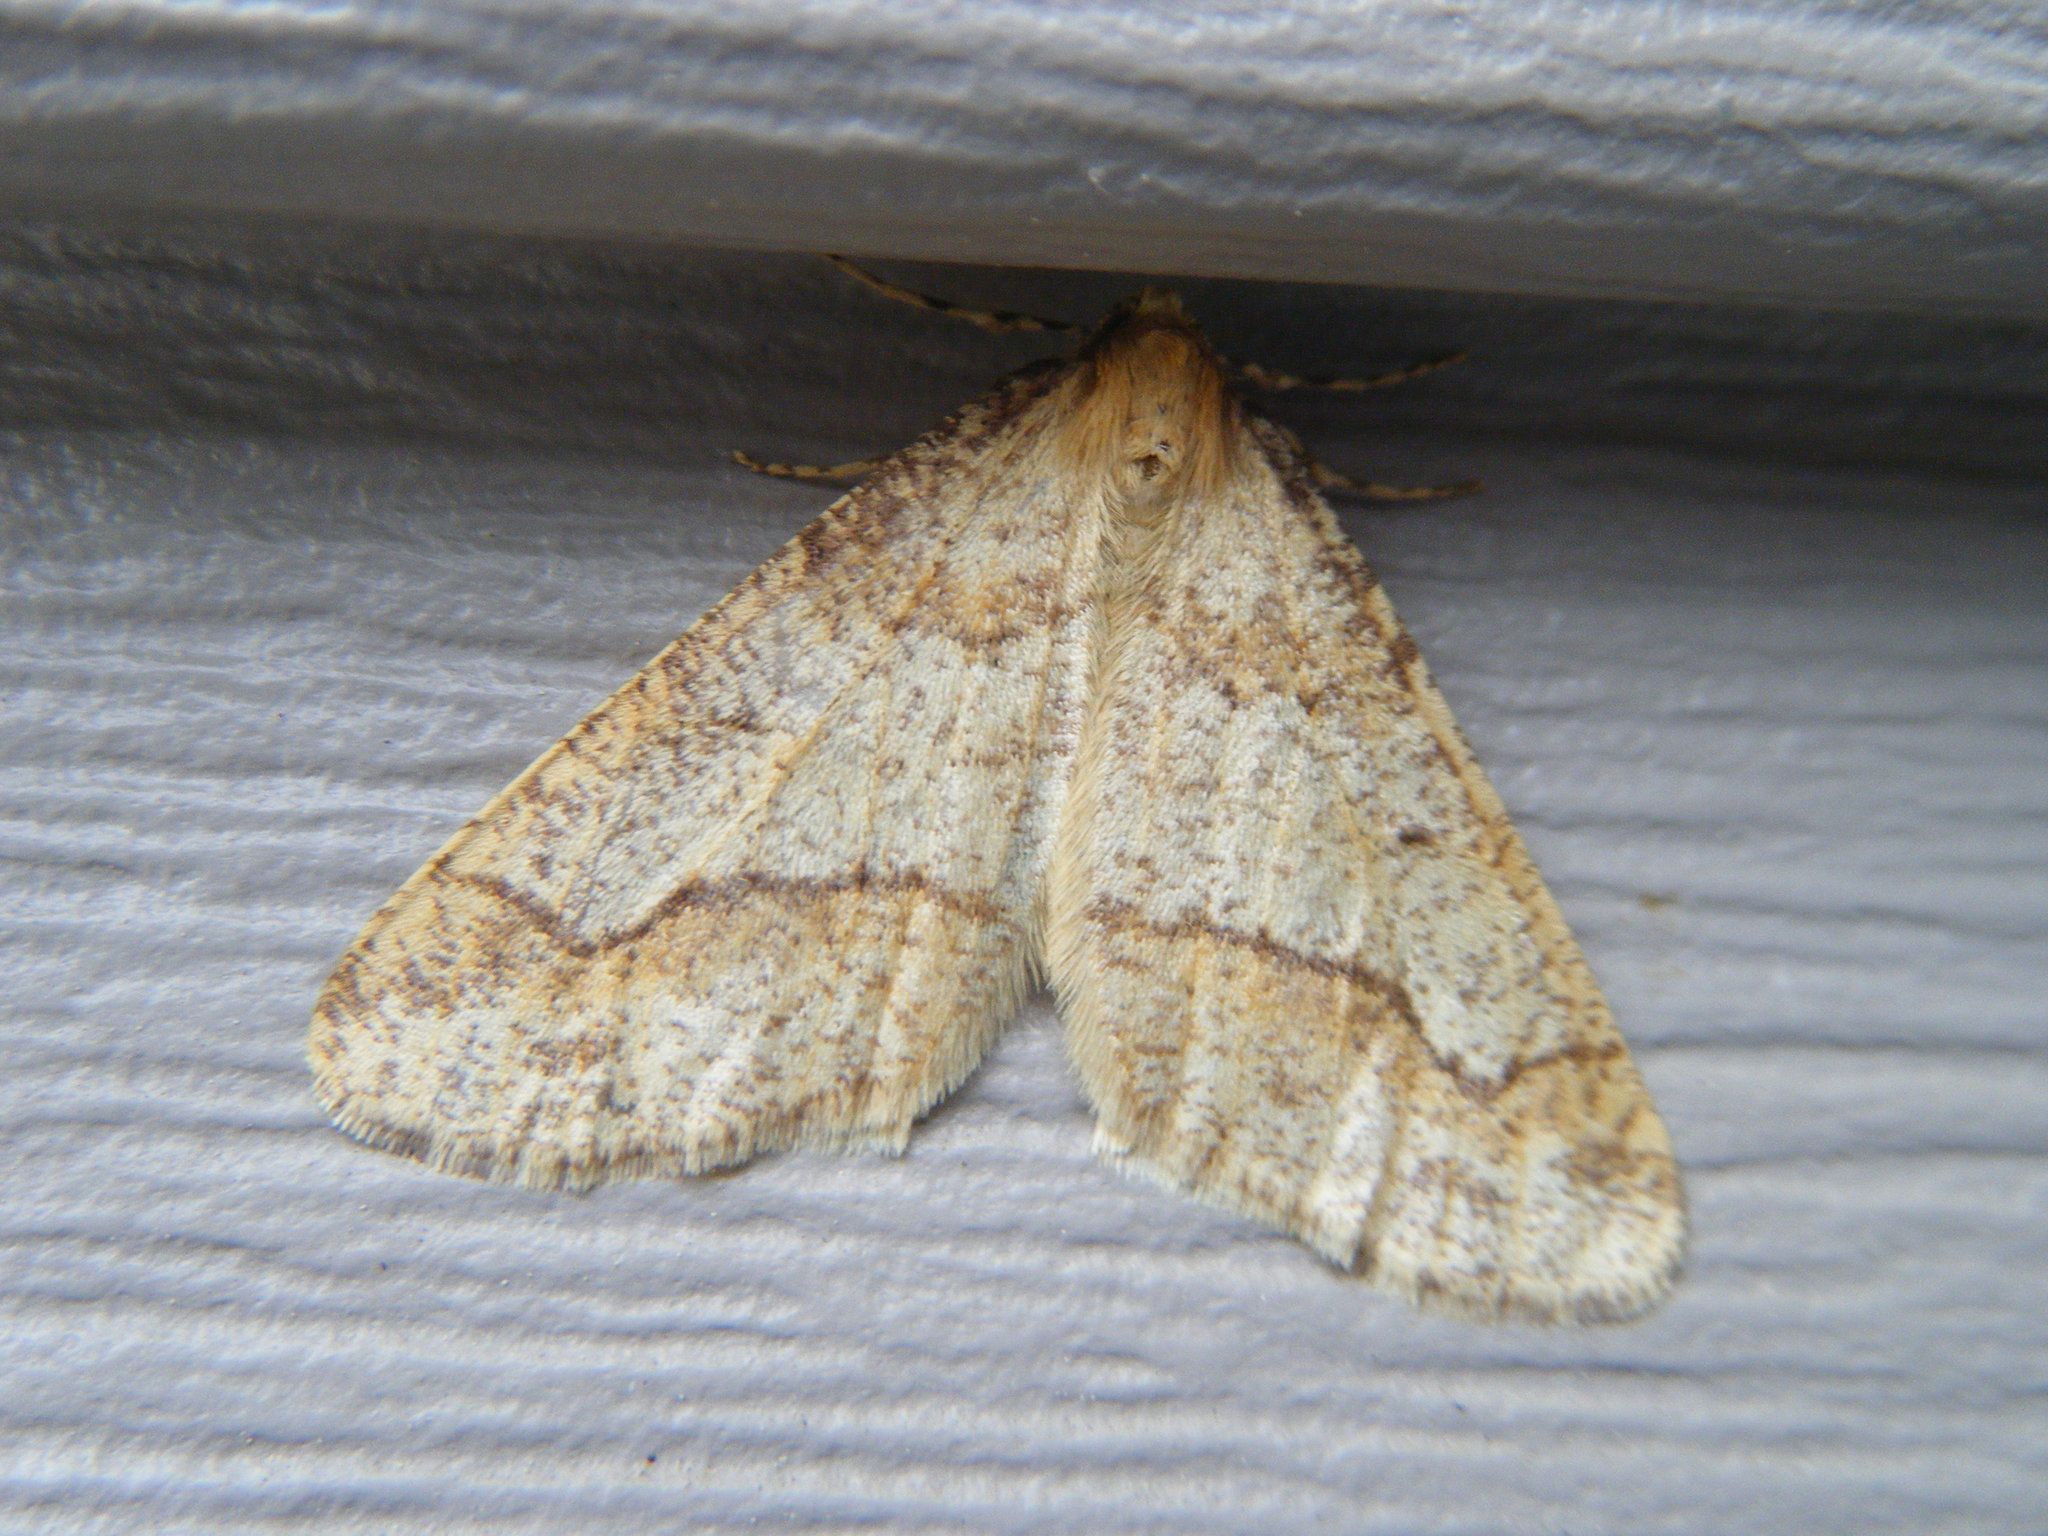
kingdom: Animalia
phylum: Arthropoda
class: Insecta
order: Lepidoptera
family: Geometridae
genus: Erannis
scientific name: Erannis tiliaria
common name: Linden looper
